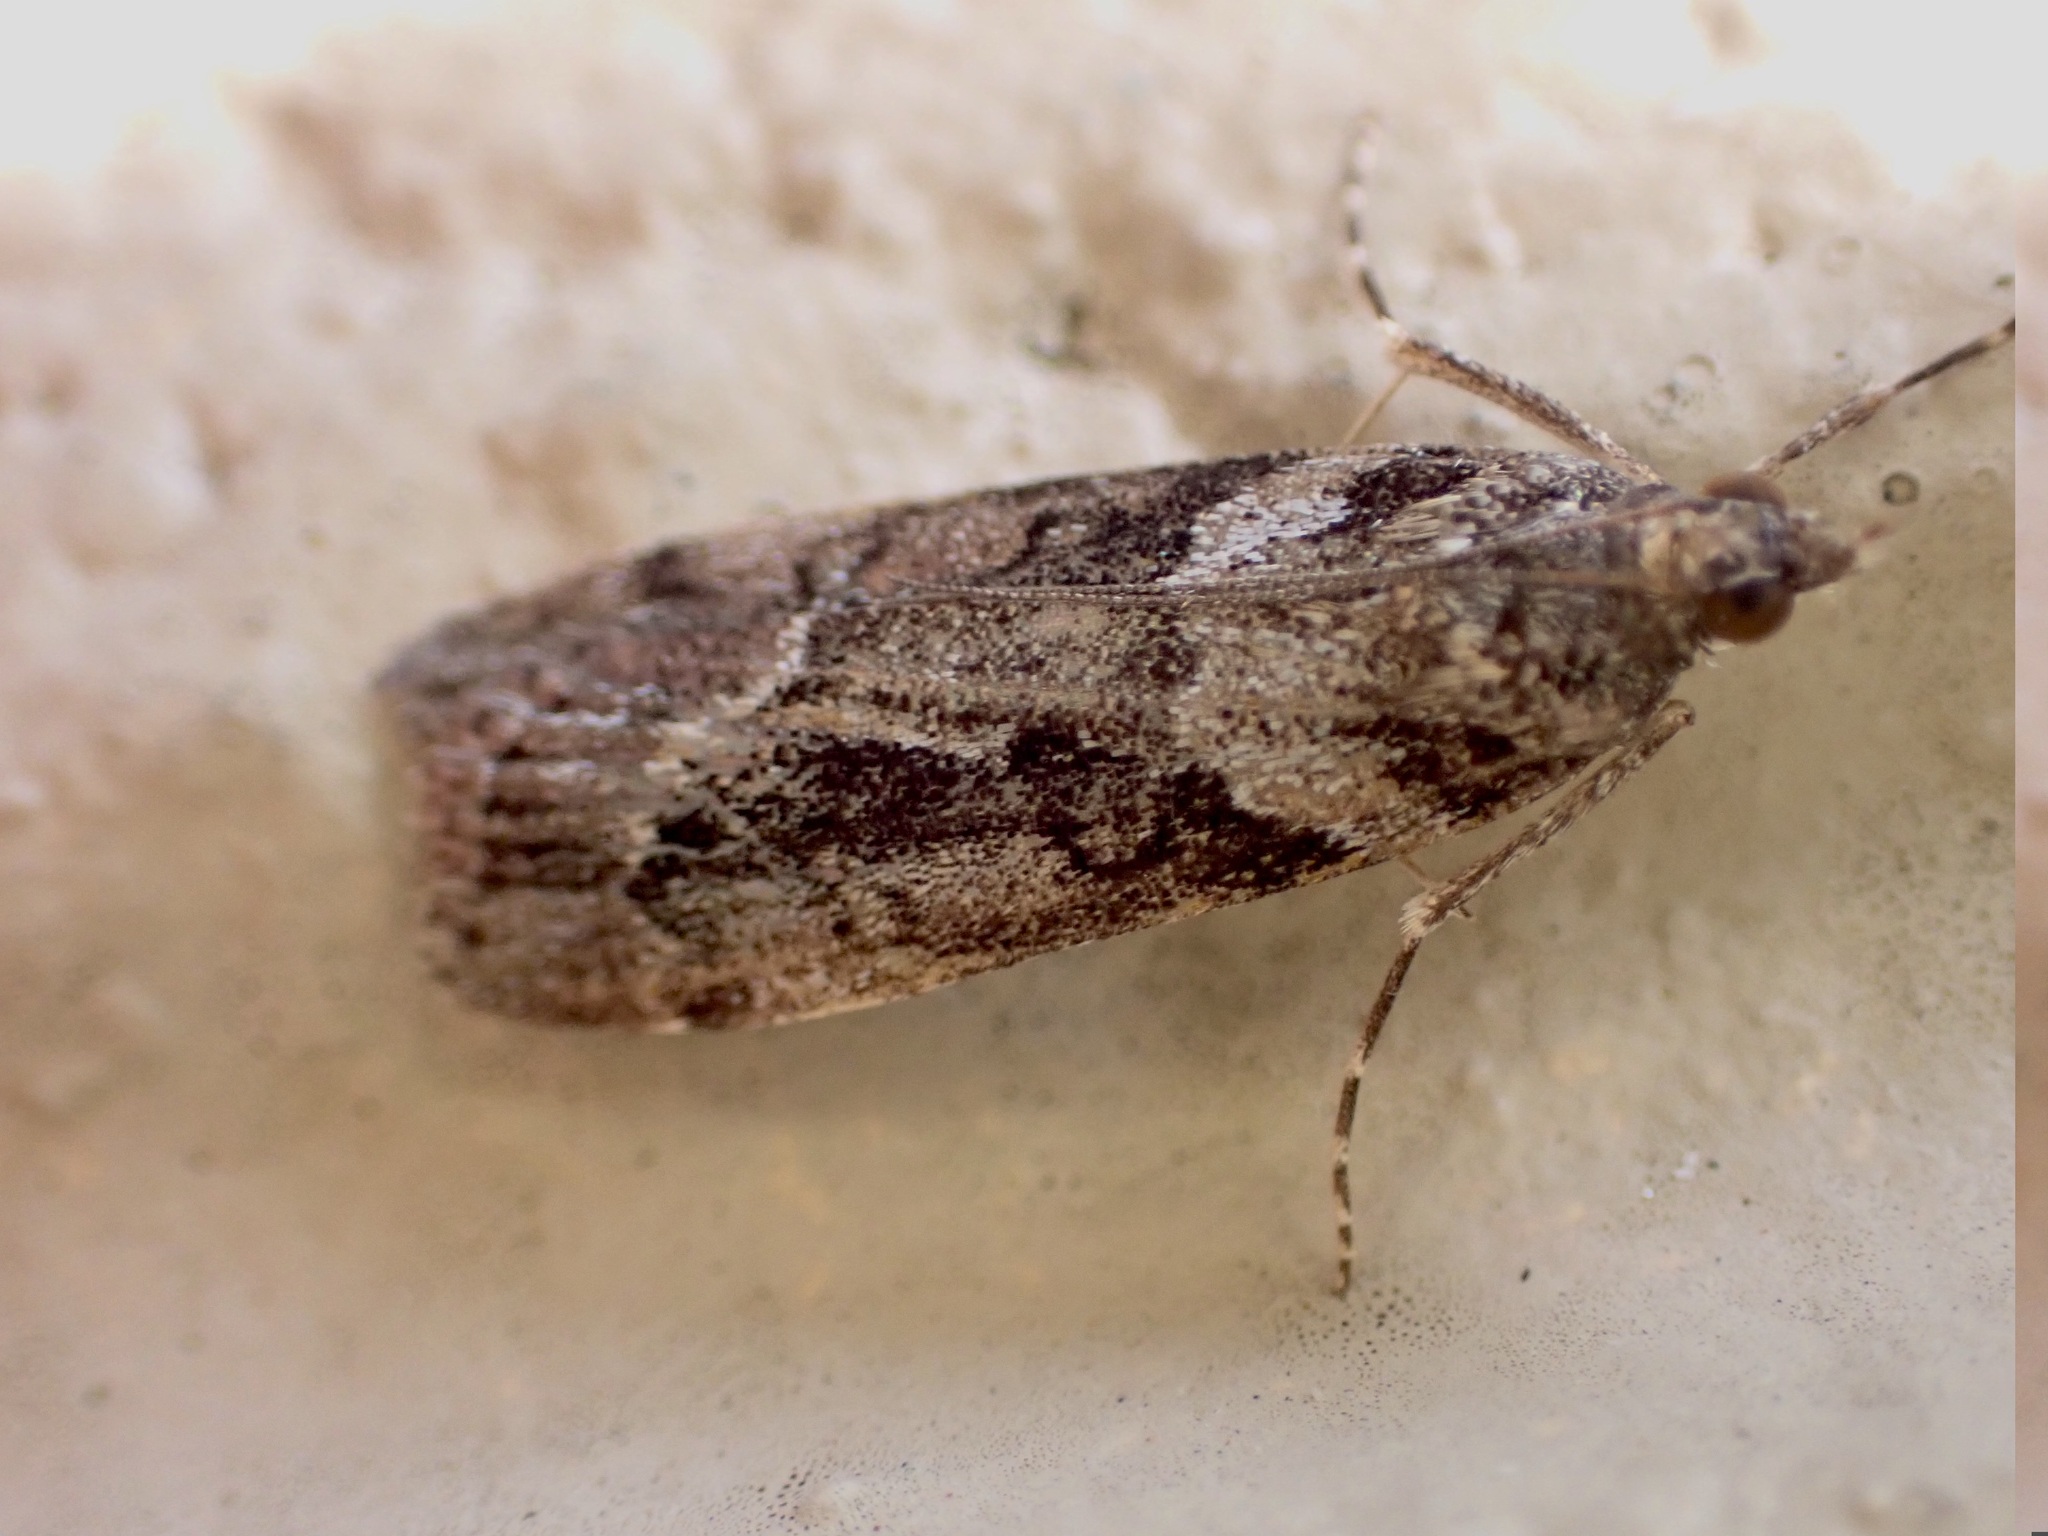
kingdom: Animalia
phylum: Arthropoda
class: Insecta
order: Lepidoptera
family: Crambidae
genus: Eudonia
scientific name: Eudonia submarginalis
